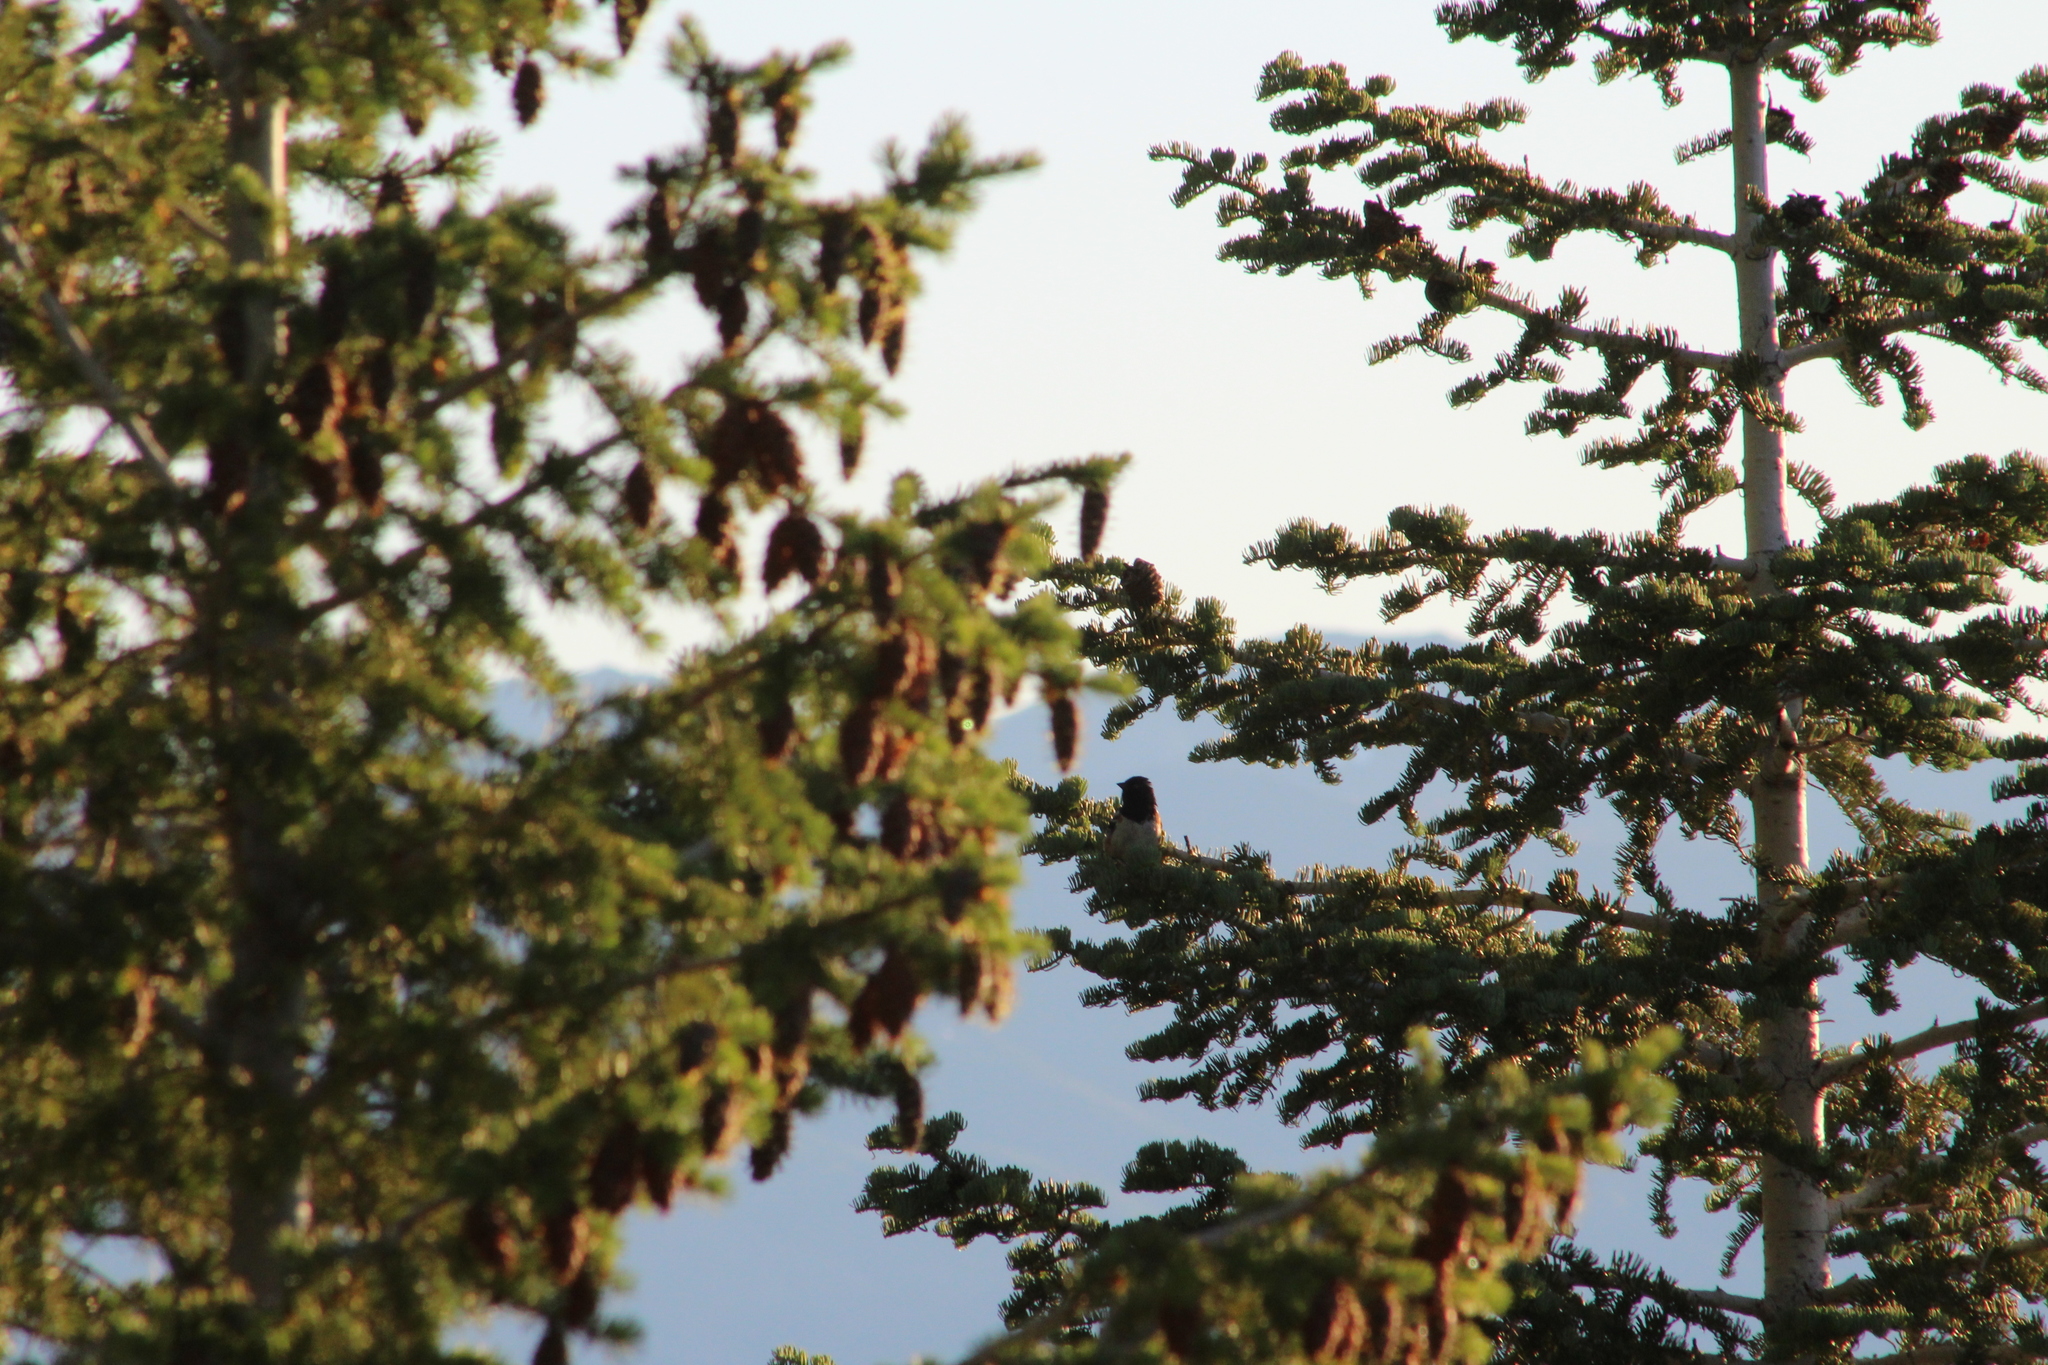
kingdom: Animalia
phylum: Chordata
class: Aves
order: Passeriformes
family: Passerellidae
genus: Pipilo
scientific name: Pipilo maculatus
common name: Spotted towhee
